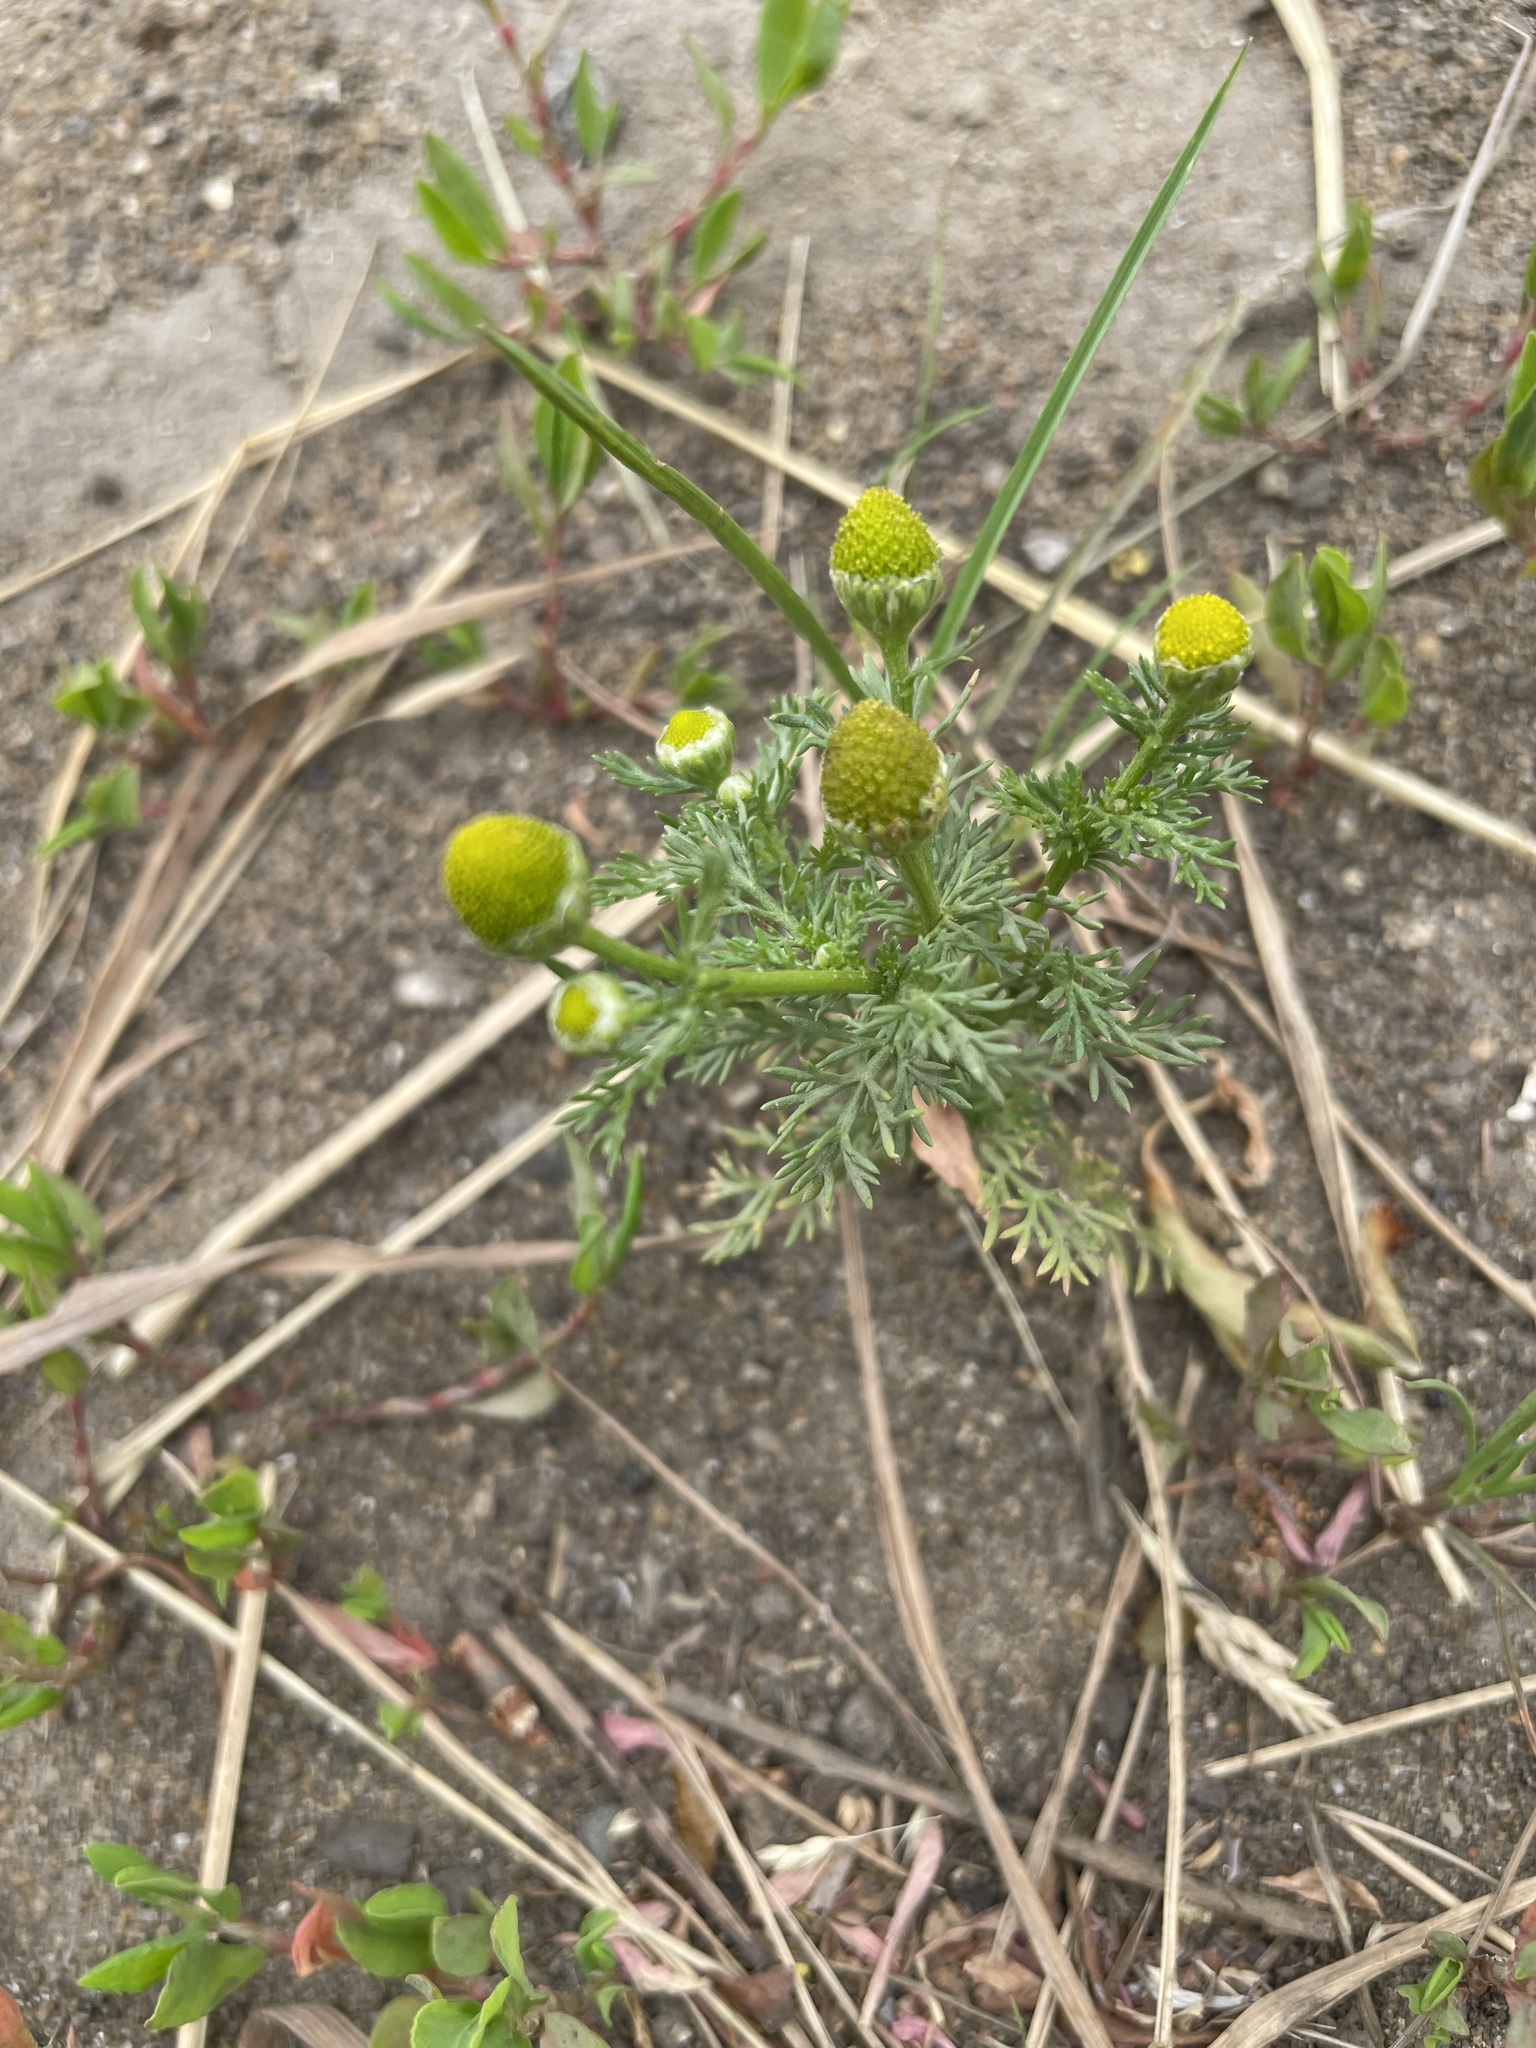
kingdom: Plantae
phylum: Tracheophyta
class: Magnoliopsida
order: Asterales
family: Asteraceae
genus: Matricaria
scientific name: Matricaria discoidea
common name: Disc mayweed
